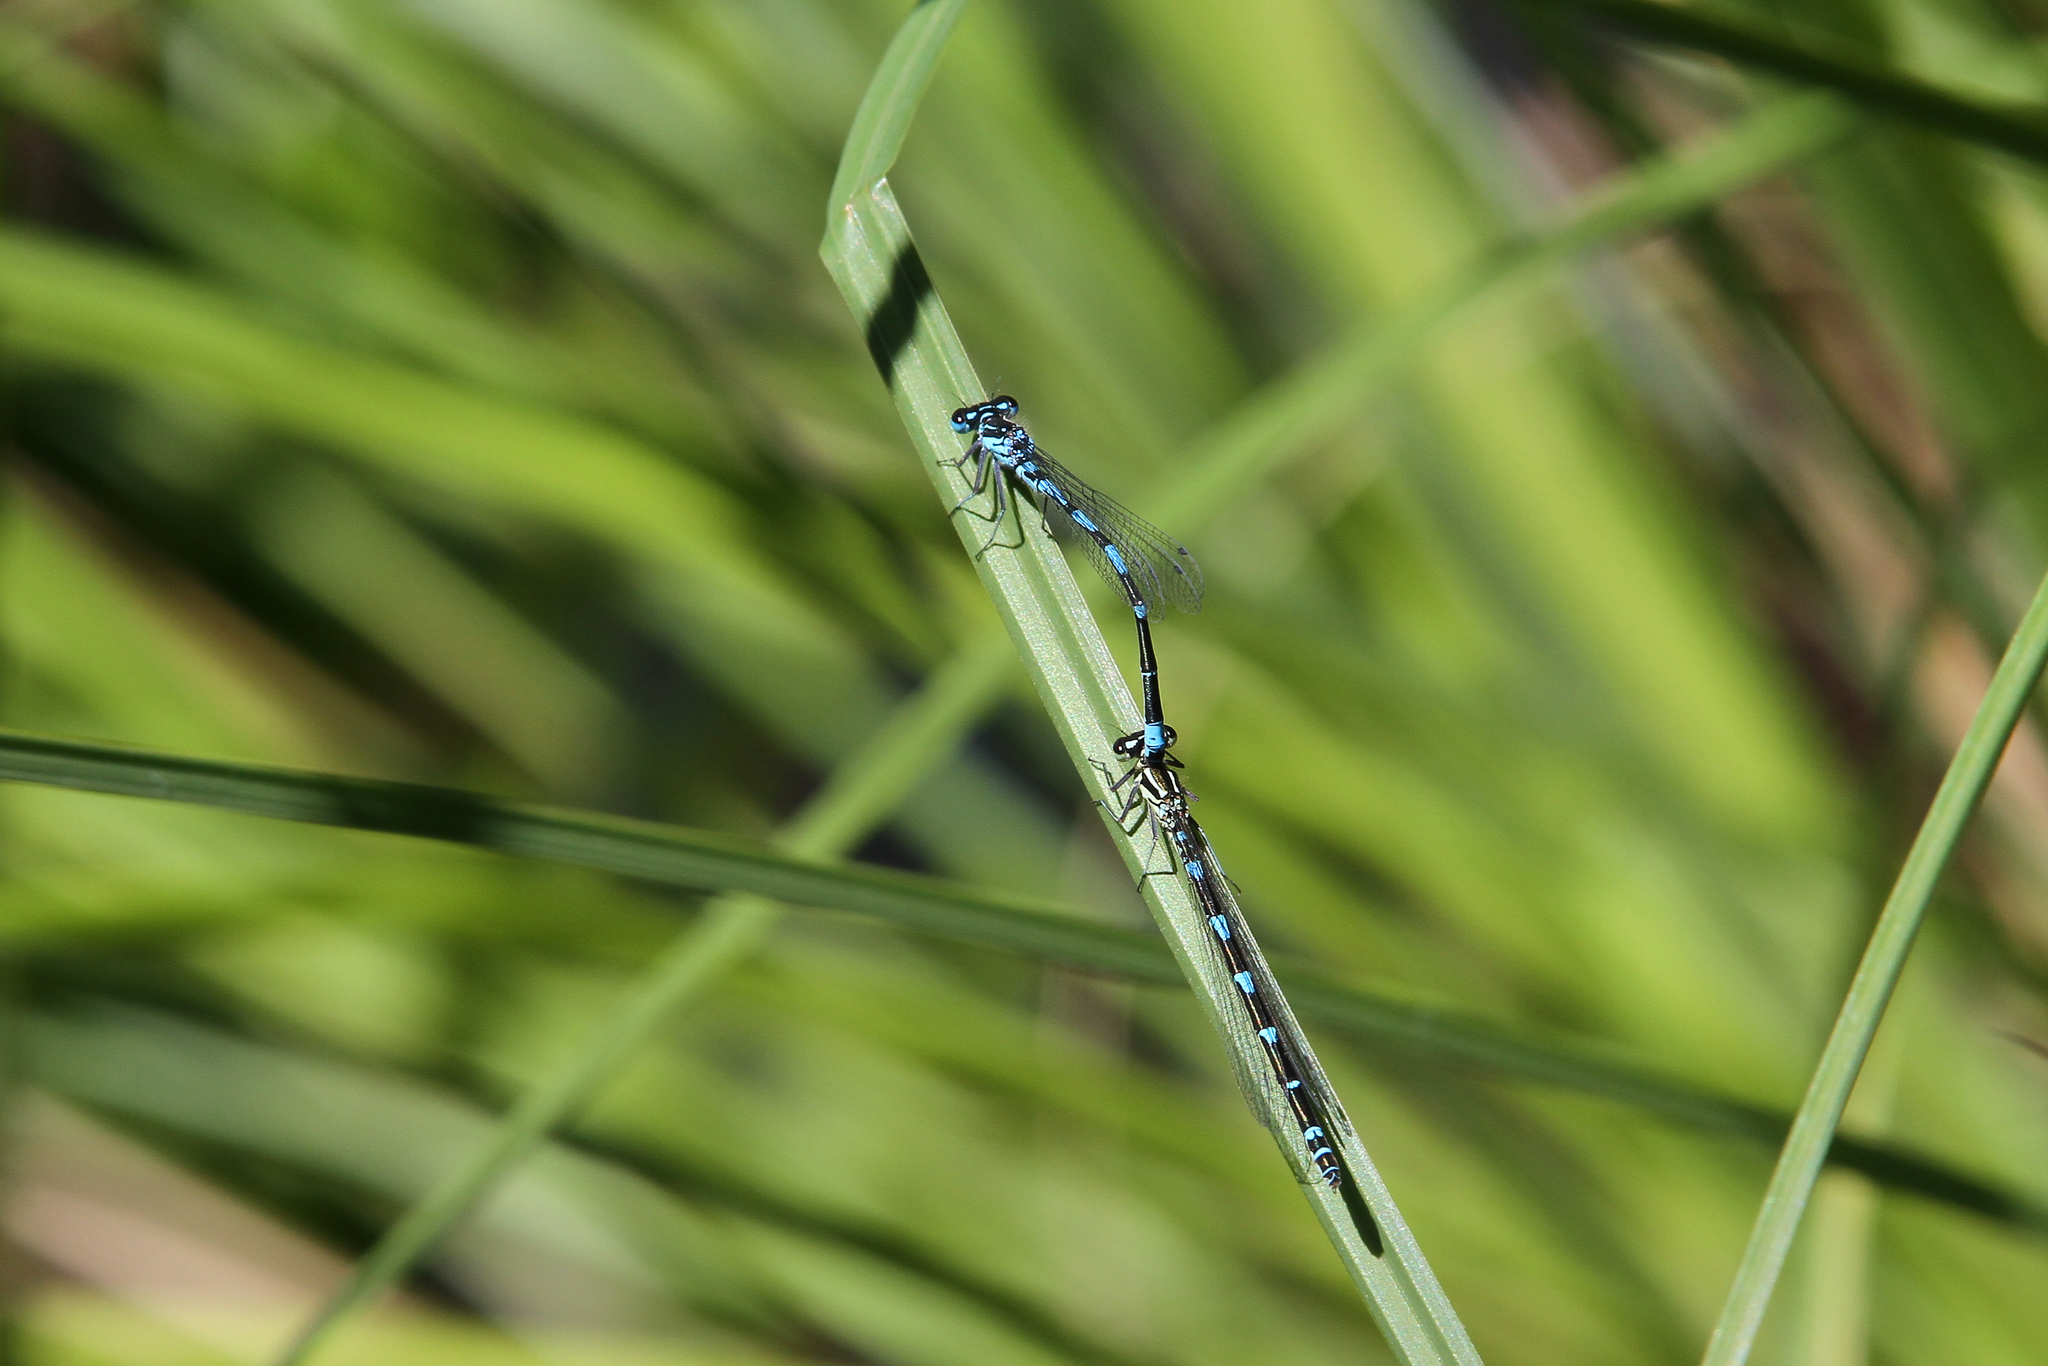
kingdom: Animalia
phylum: Arthropoda
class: Insecta
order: Odonata
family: Coenagrionidae
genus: Coenagrion
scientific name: Coenagrion pulchellum
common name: Variable bluet
